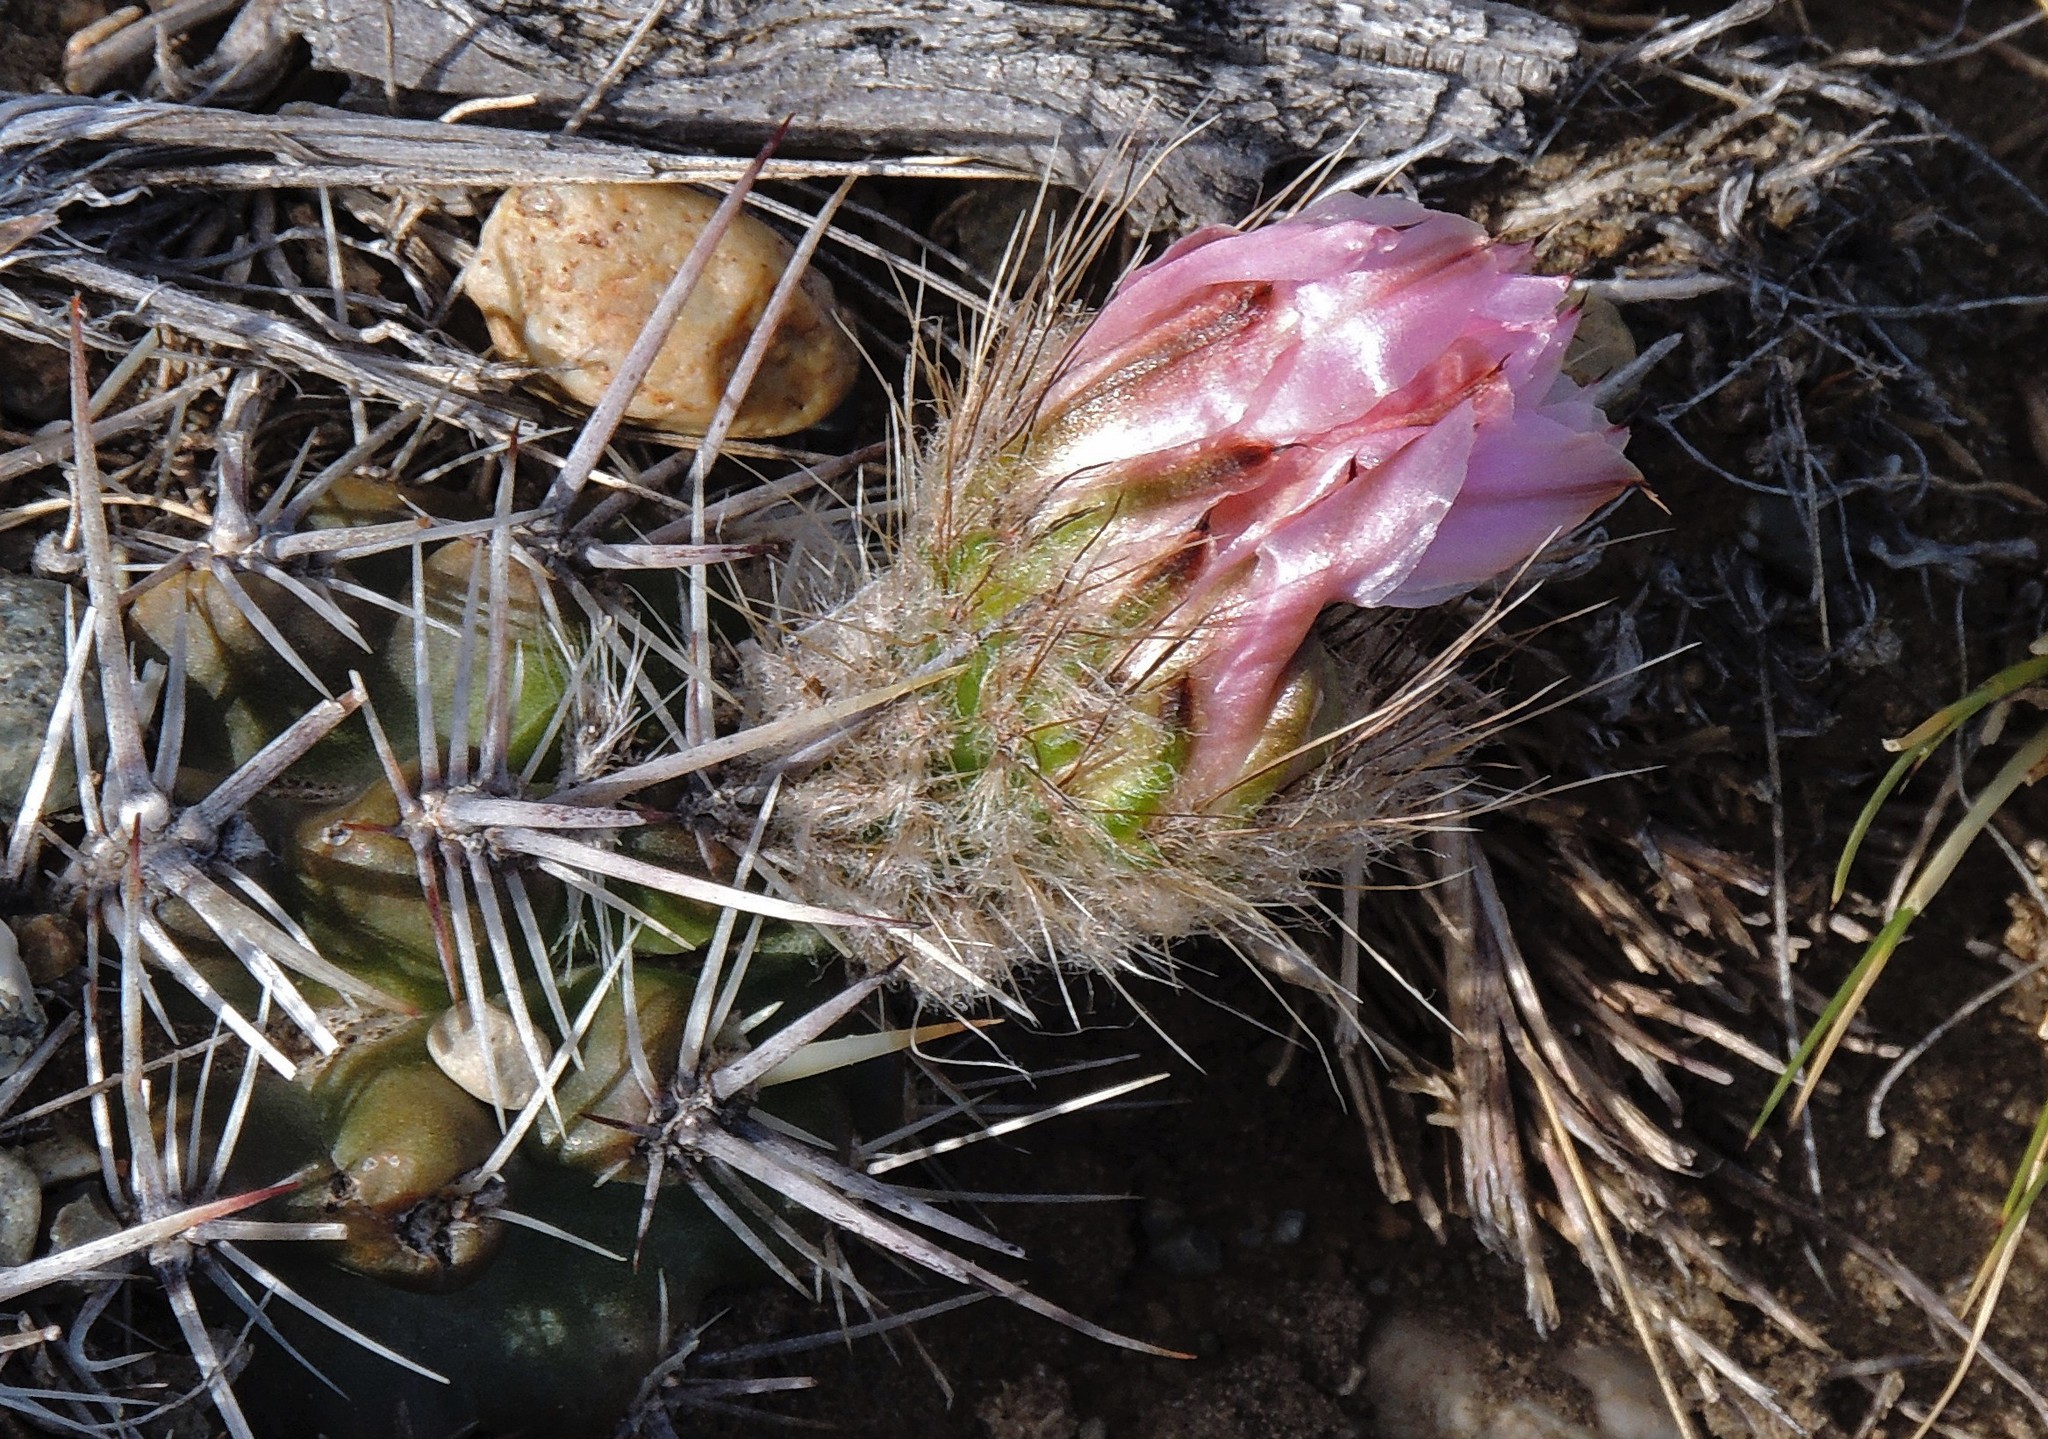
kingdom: Plantae
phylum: Tracheophyta
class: Magnoliopsida
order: Caryophyllales
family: Cactaceae
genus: Austrocactus
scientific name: Austrocactus aonikenkensis
